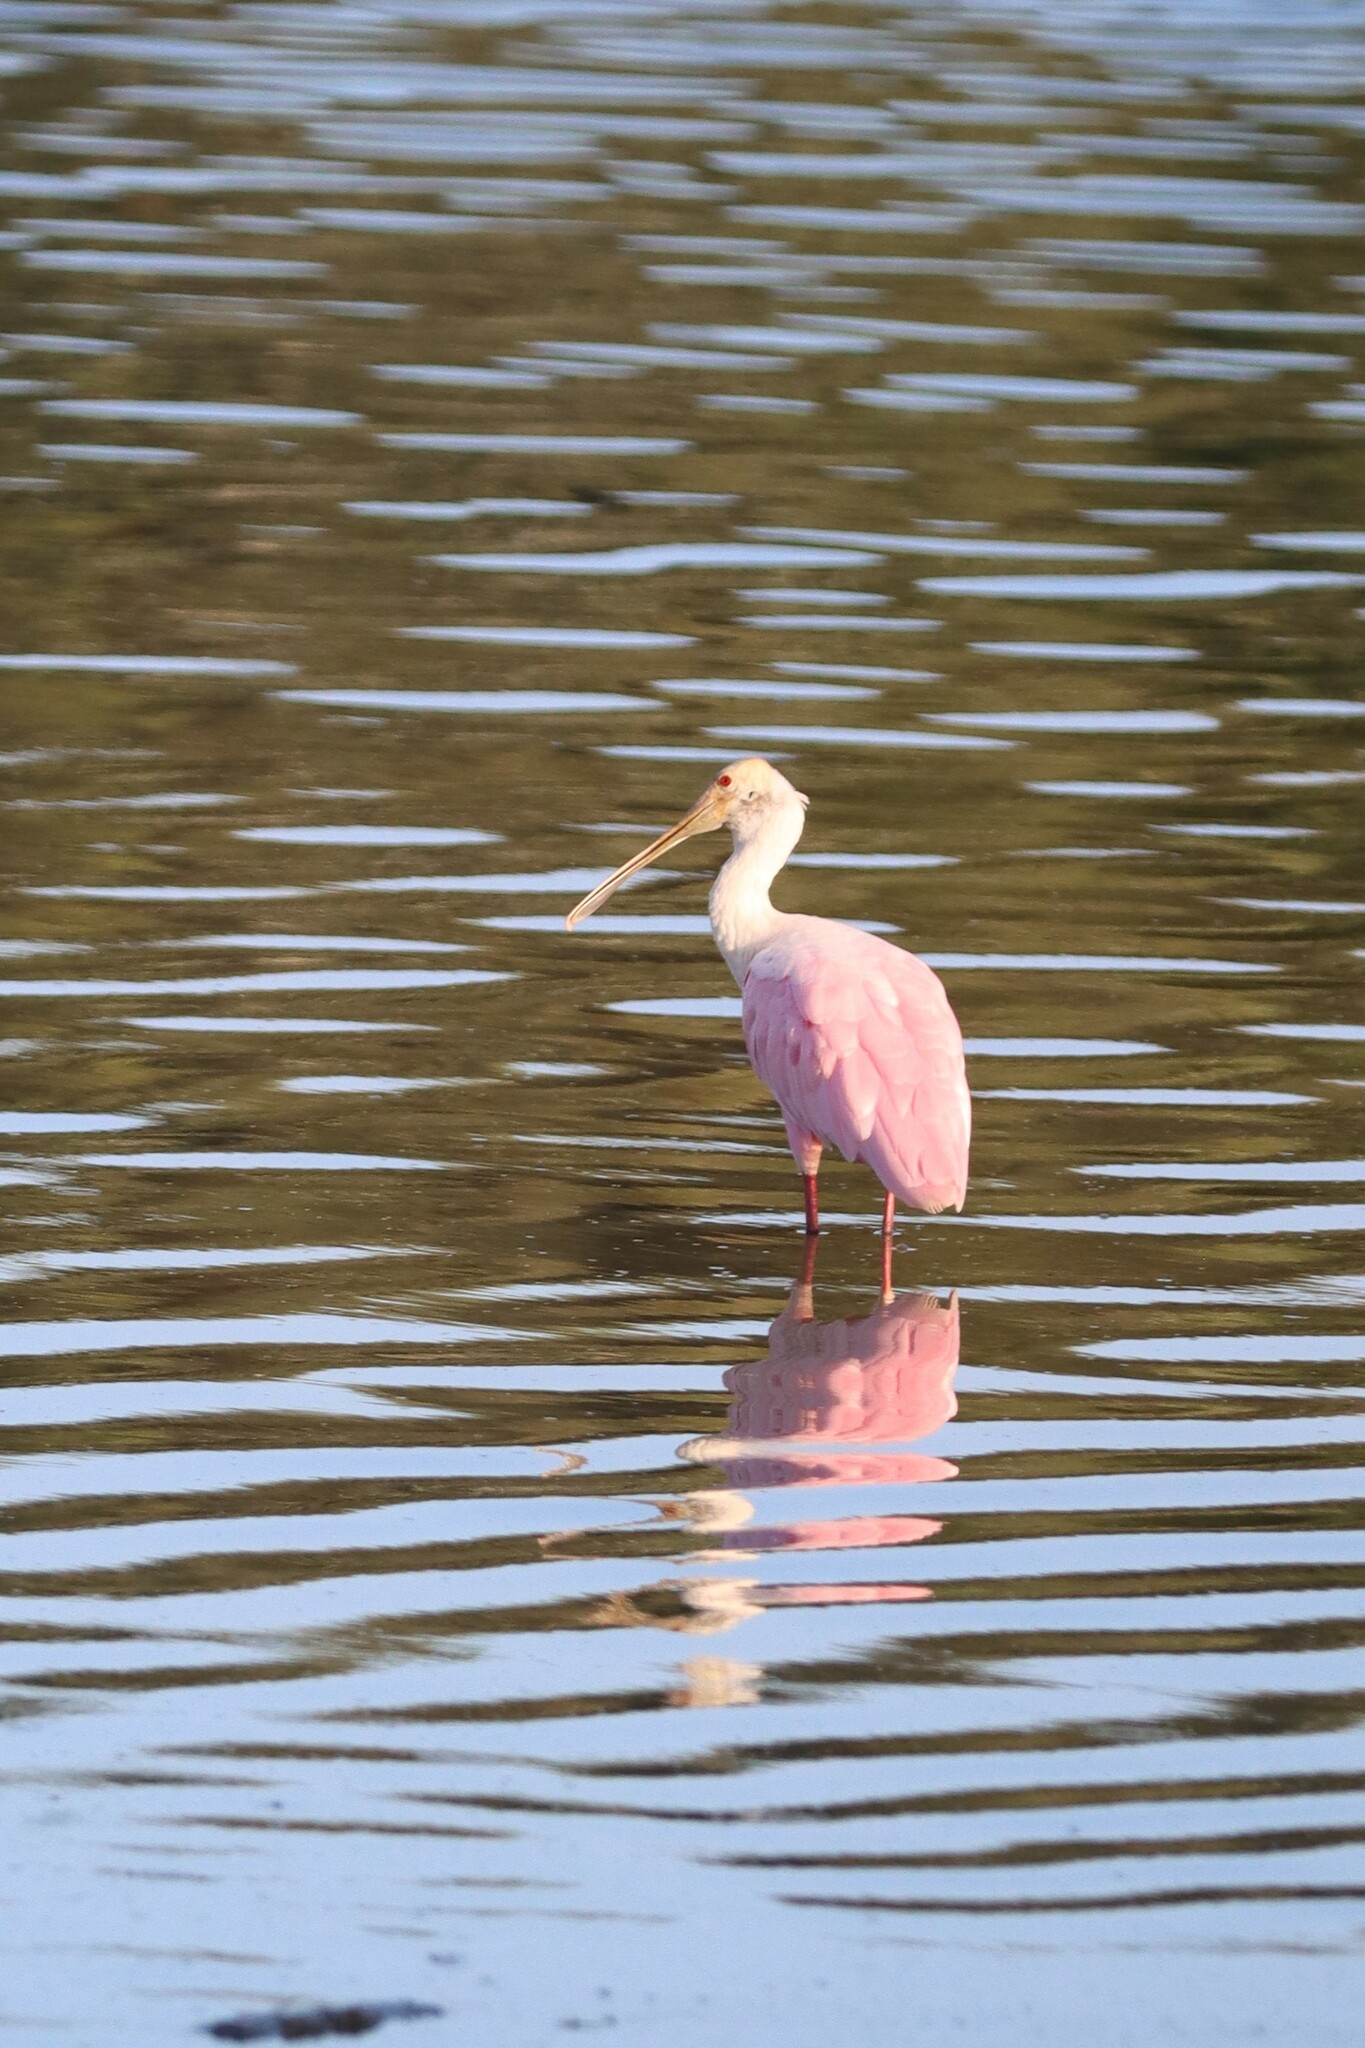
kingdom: Animalia
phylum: Chordata
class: Aves
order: Pelecaniformes
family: Threskiornithidae
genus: Platalea
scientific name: Platalea ajaja
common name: Roseate spoonbill
